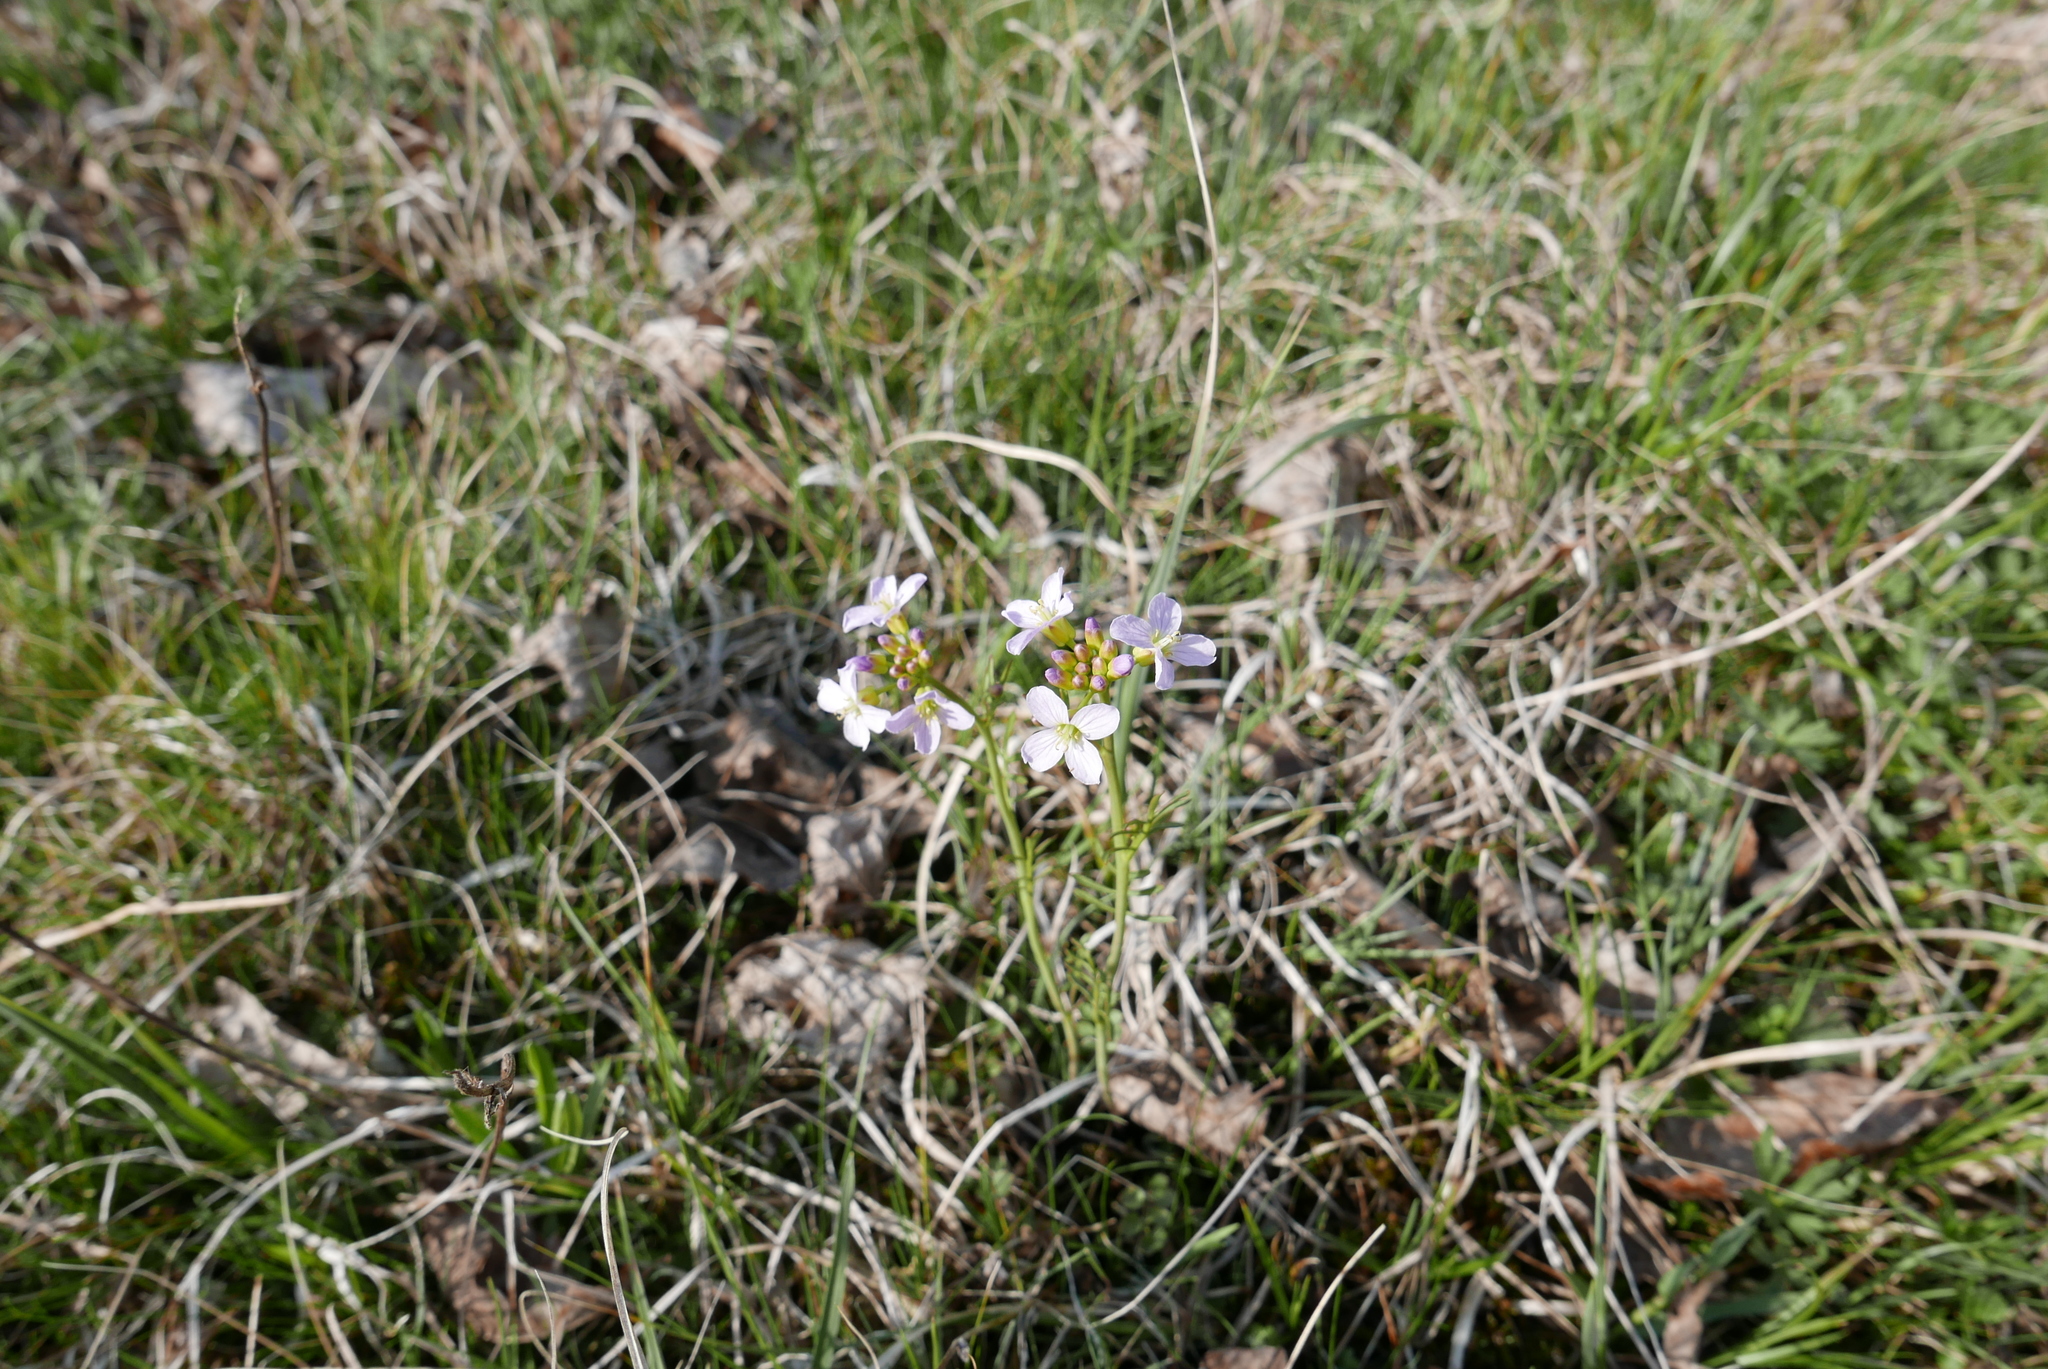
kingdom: Plantae
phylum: Tracheophyta
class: Magnoliopsida
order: Brassicales
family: Brassicaceae
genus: Cardamine
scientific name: Cardamine pratensis
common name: Cuckoo flower
